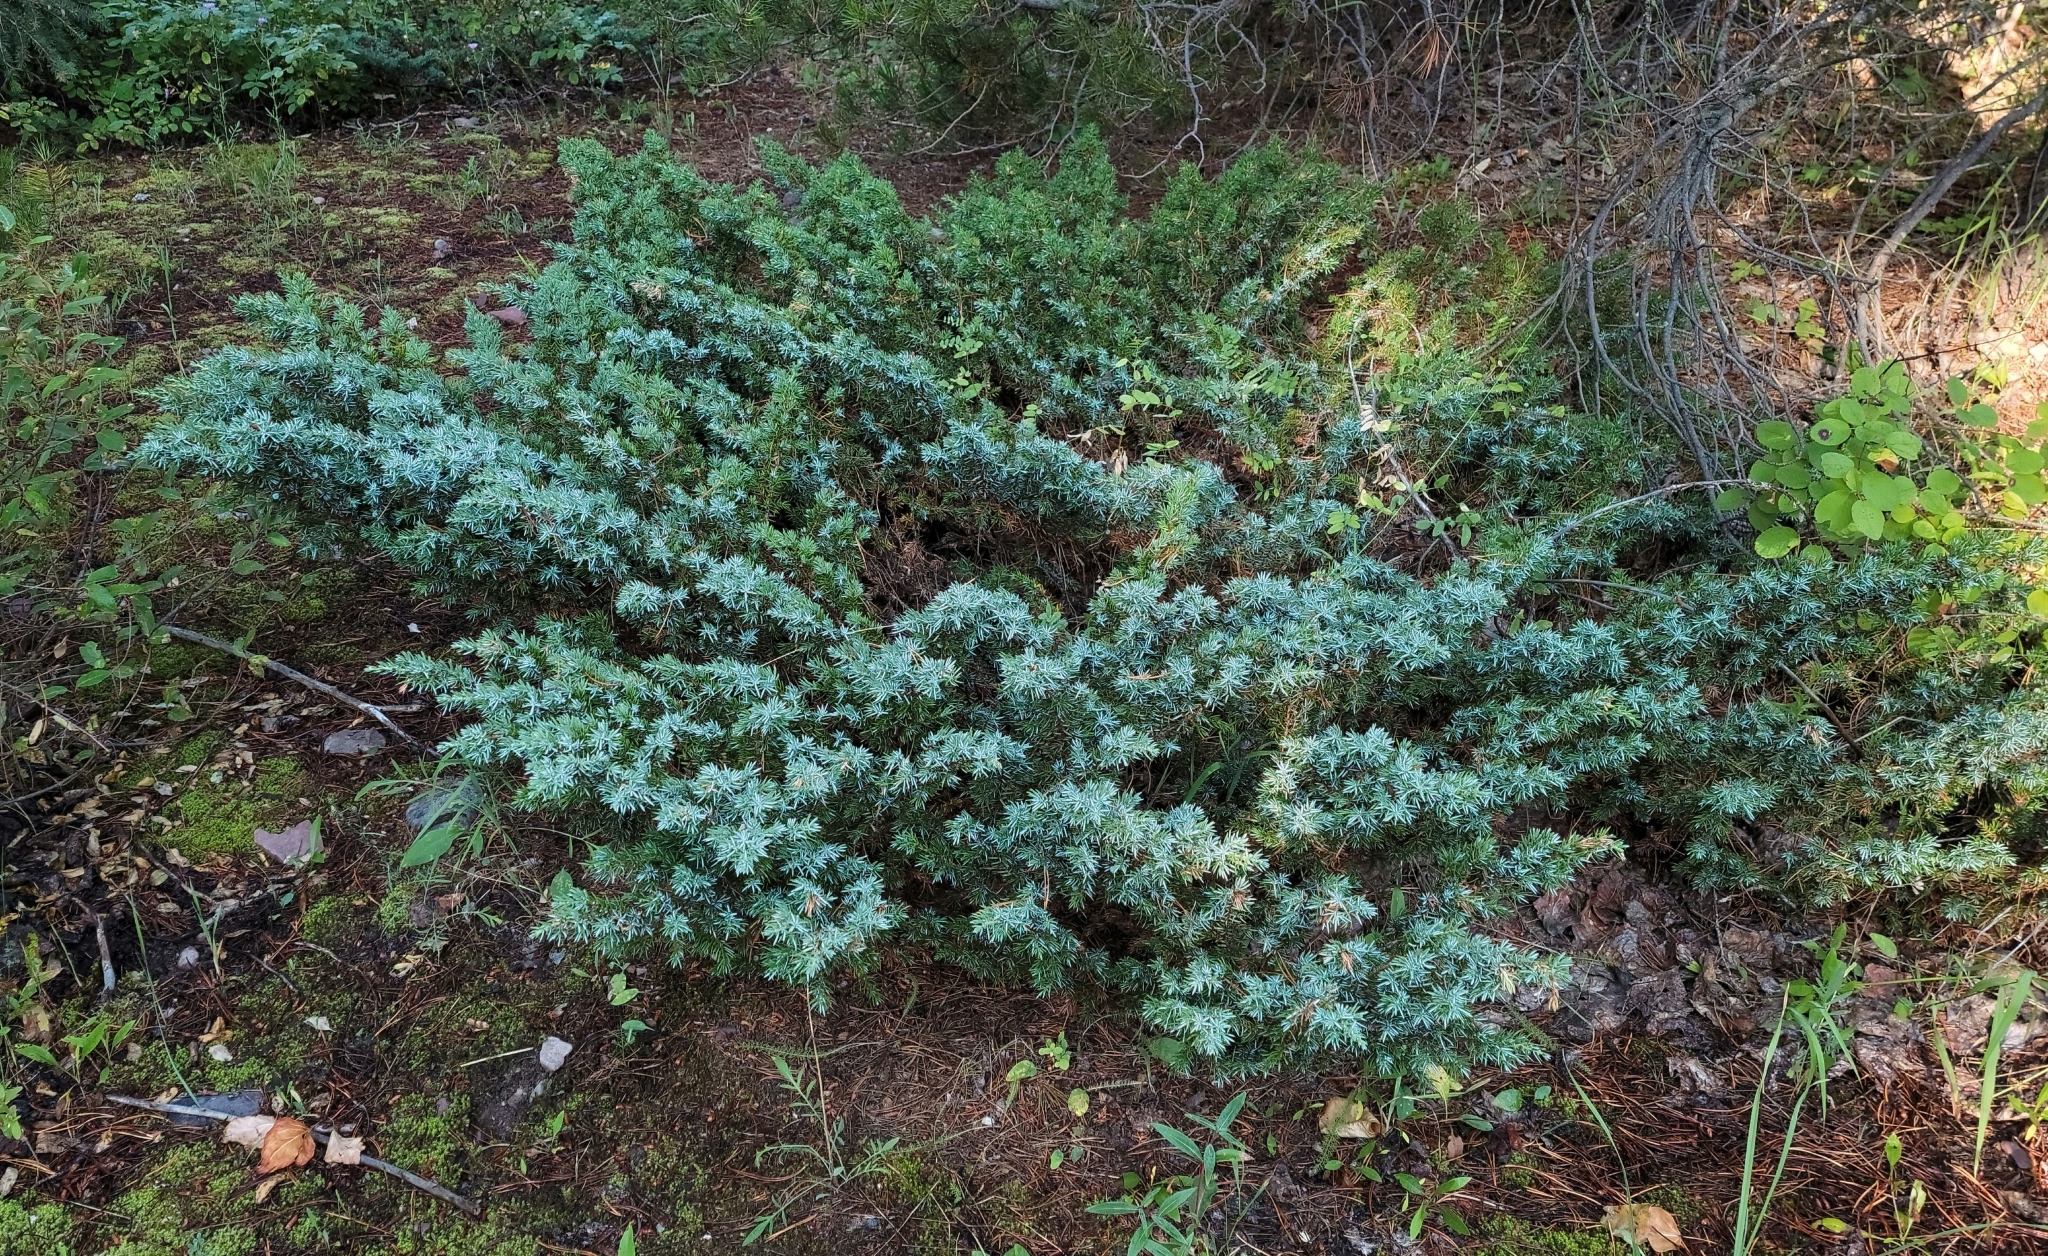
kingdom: Plantae
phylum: Tracheophyta
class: Pinopsida
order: Pinales
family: Cupressaceae
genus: Juniperus
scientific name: Juniperus communis
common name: Common juniper
